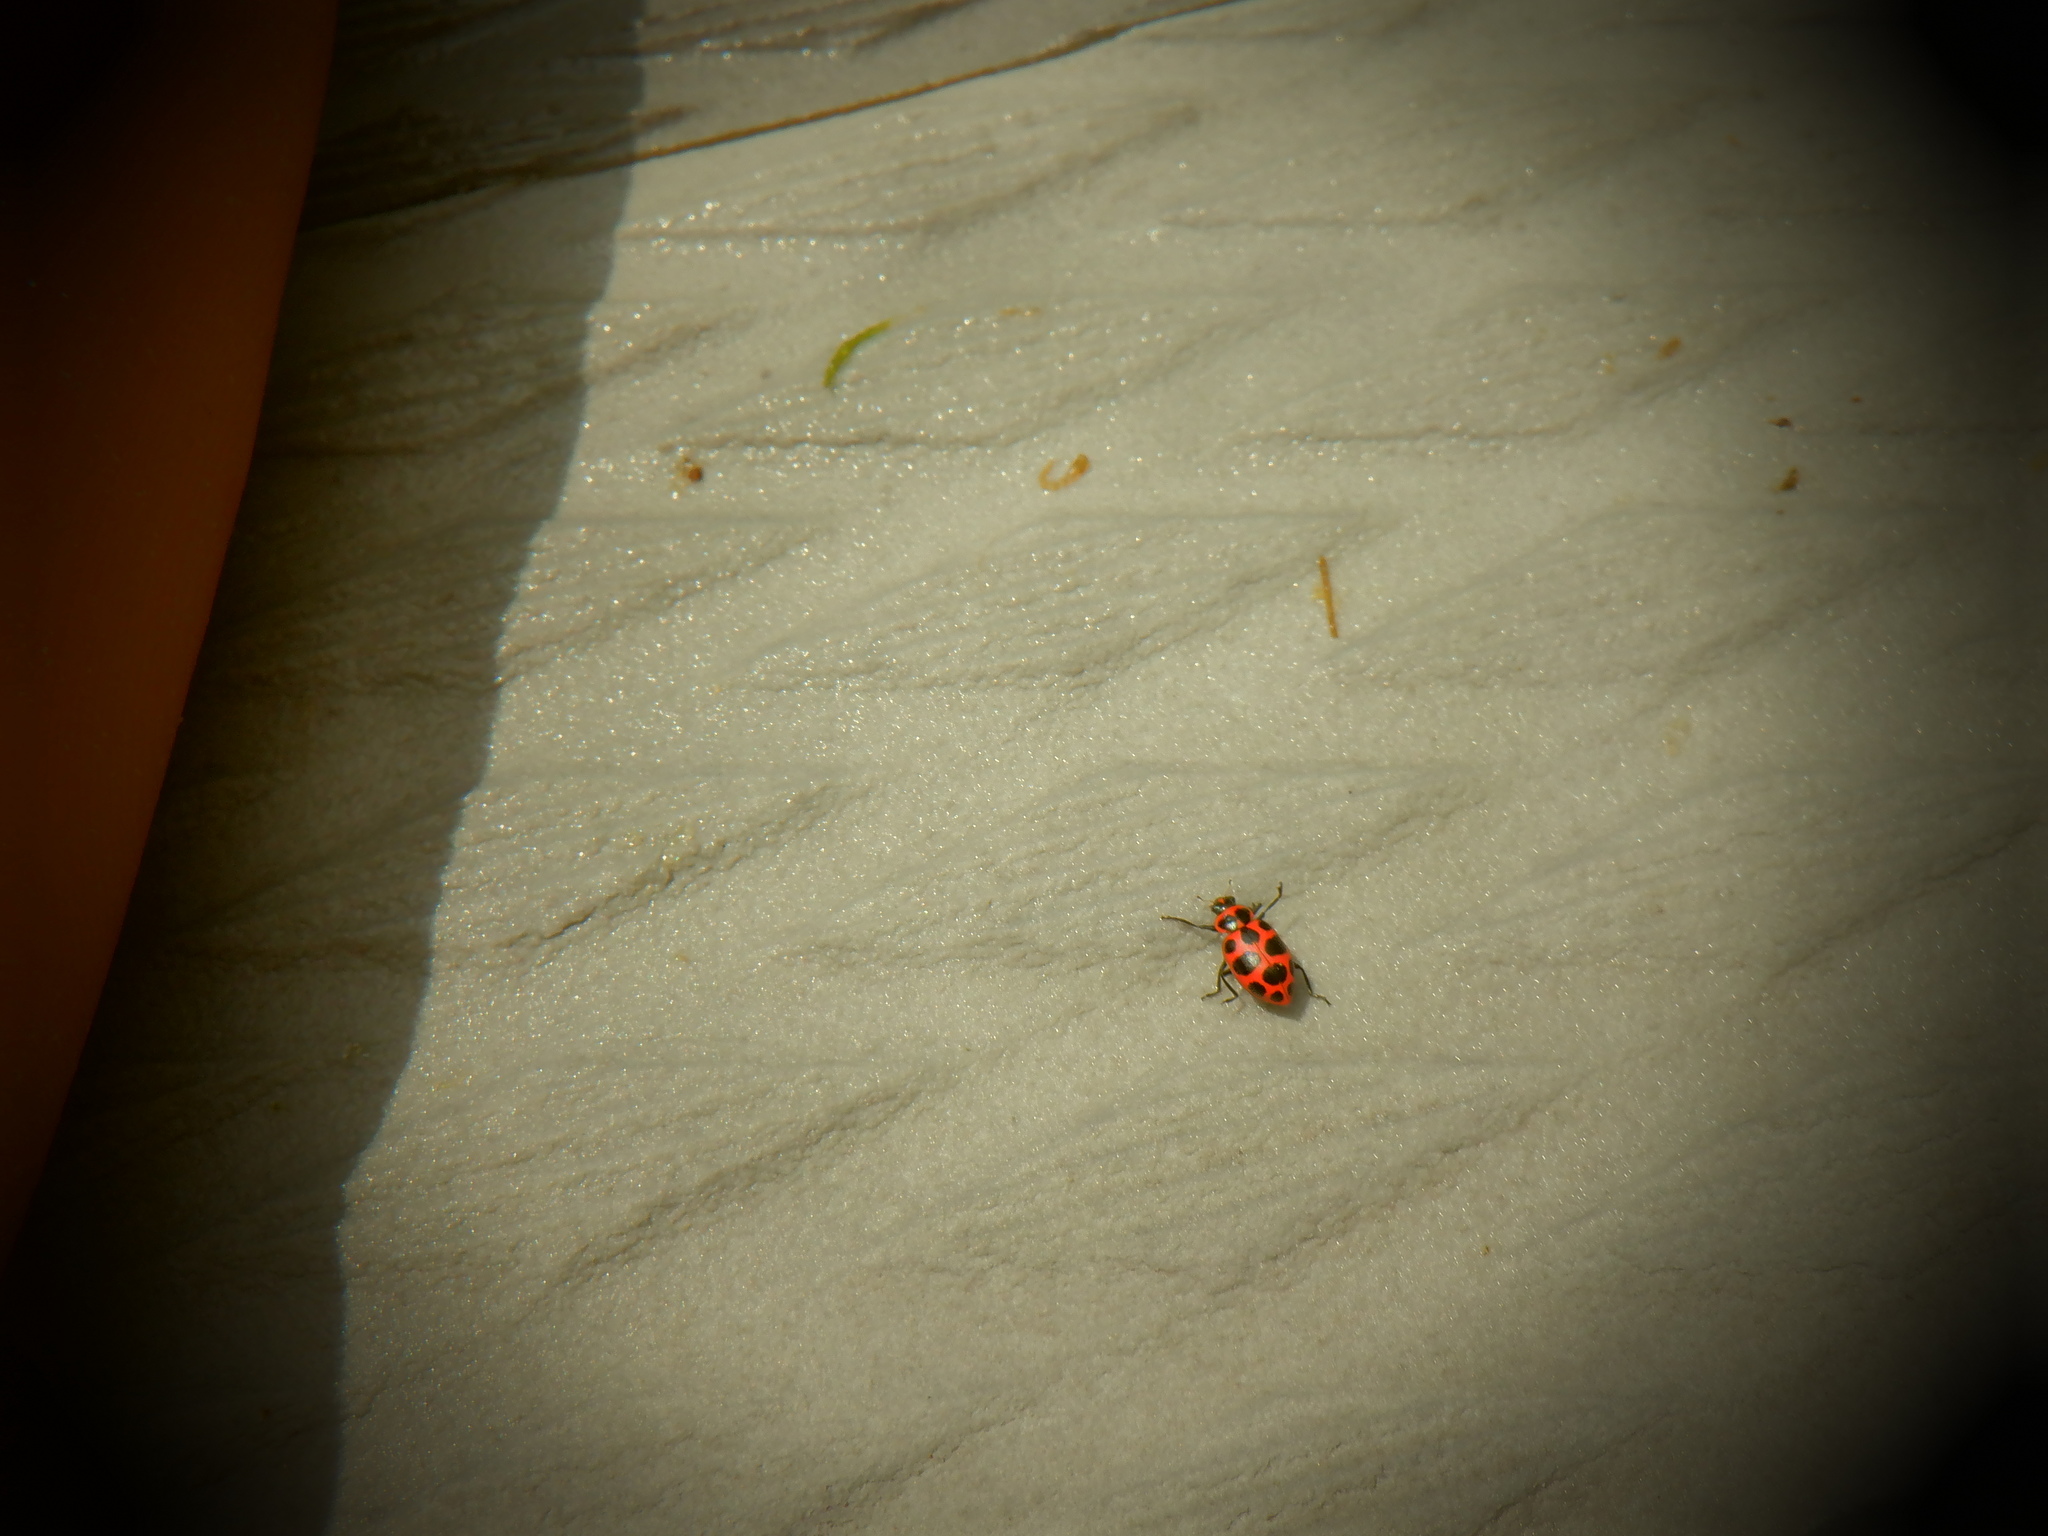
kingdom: Animalia
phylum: Arthropoda
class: Insecta
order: Coleoptera
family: Coccinellidae
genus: Coleomegilla
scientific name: Coleomegilla maculata
